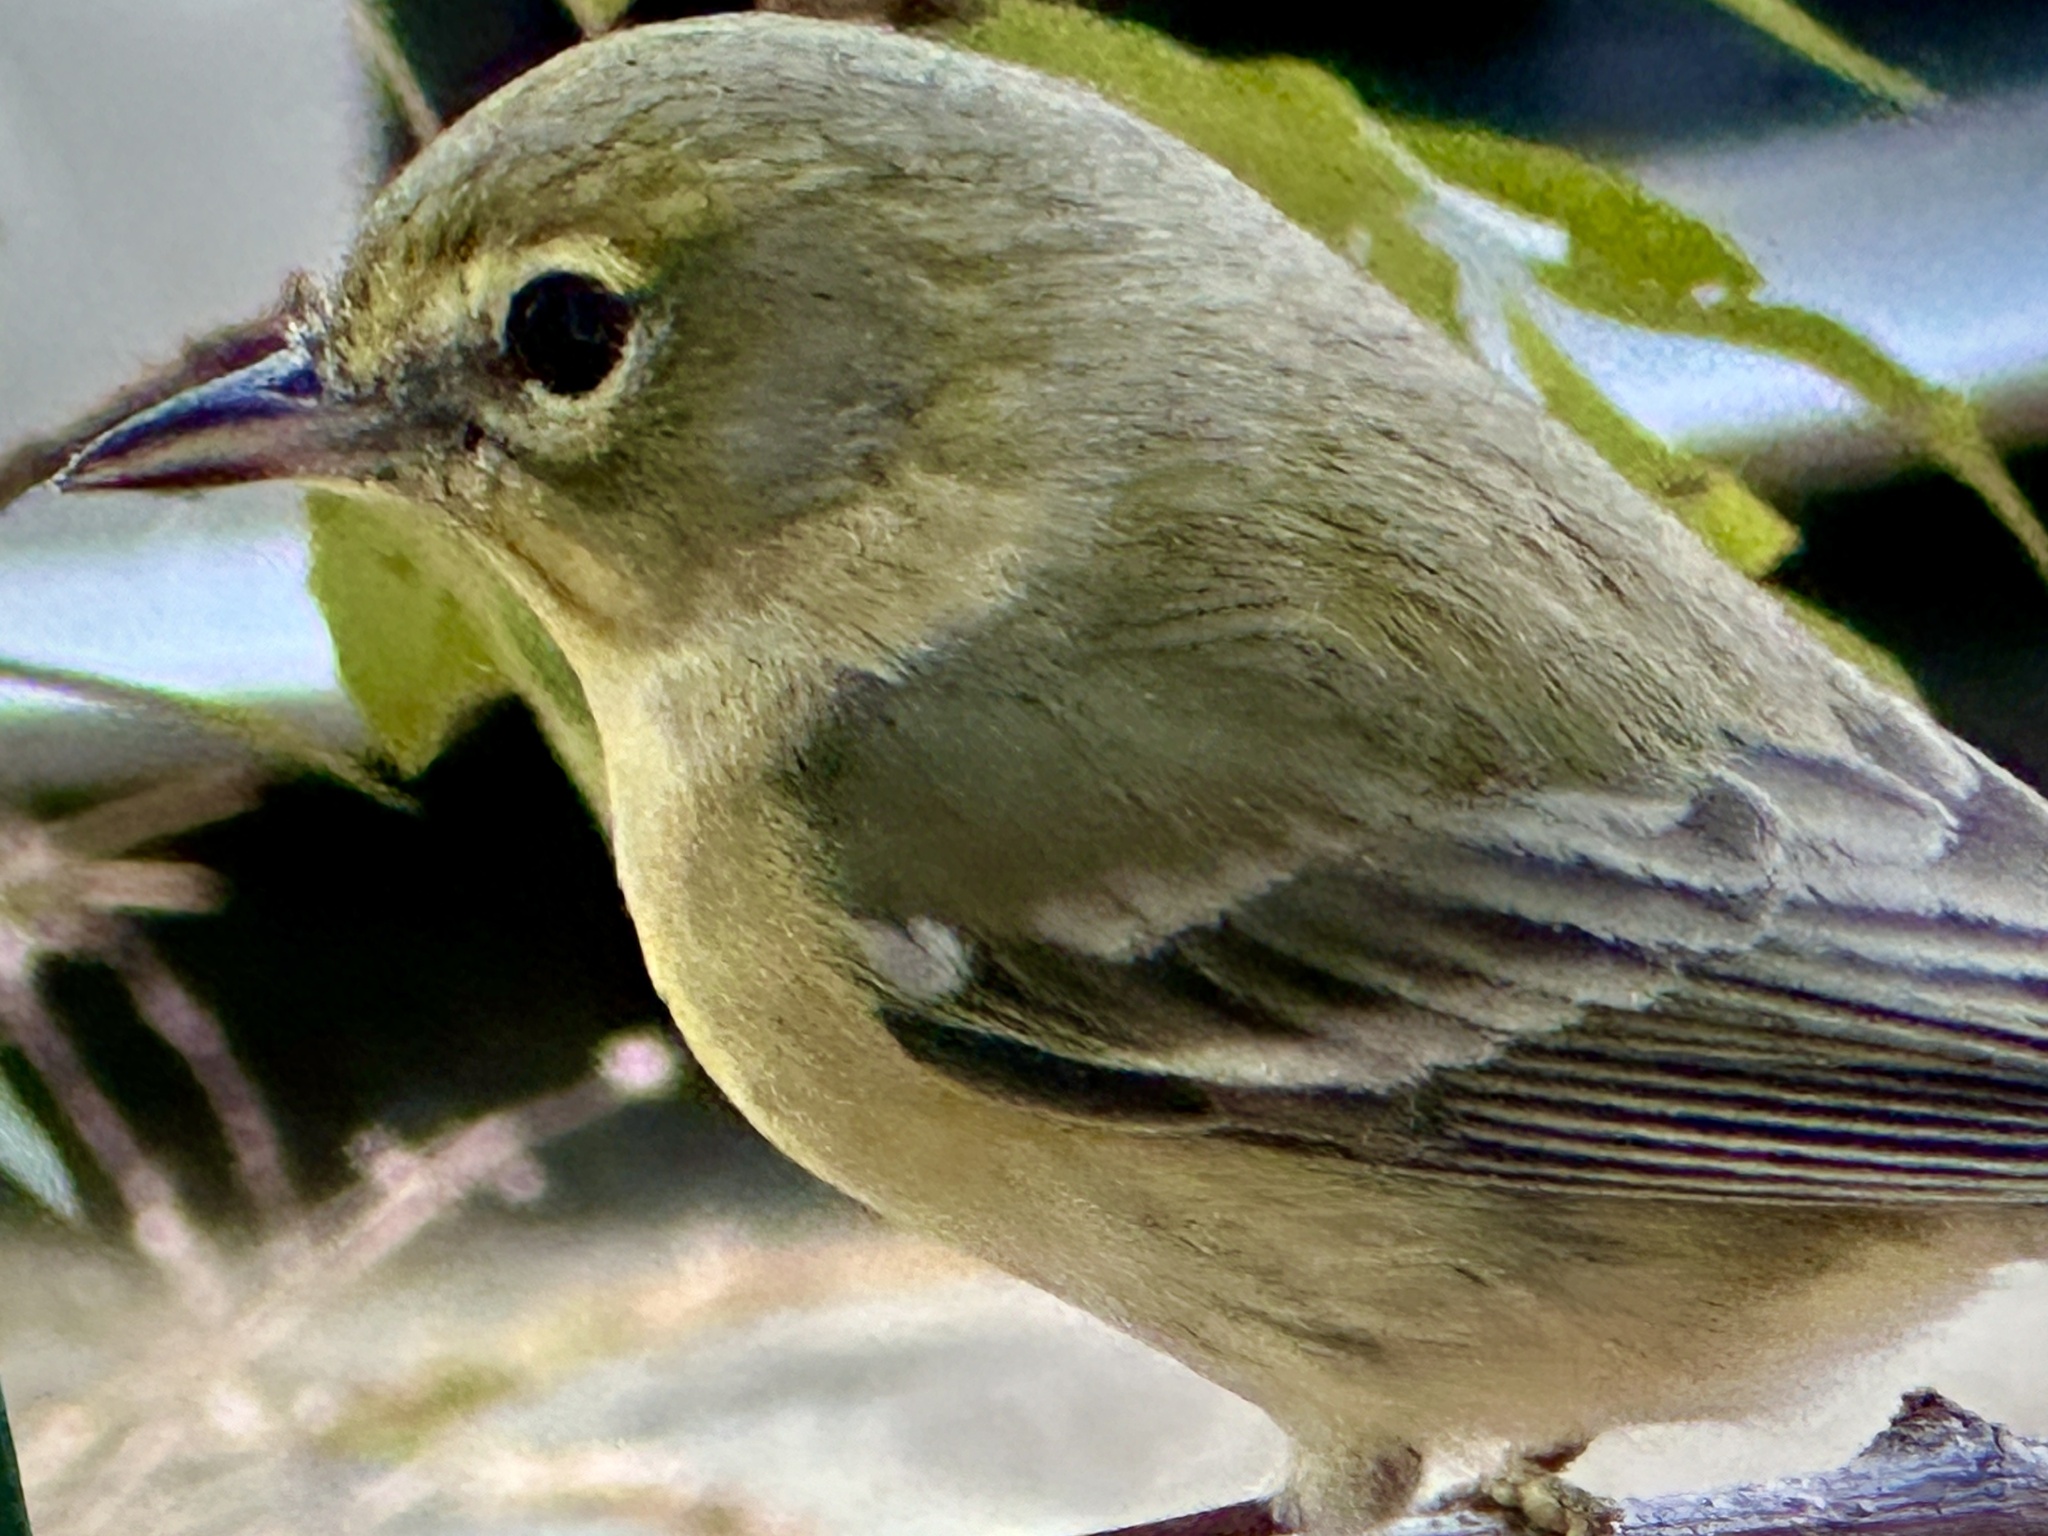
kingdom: Animalia
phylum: Chordata
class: Aves
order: Passeriformes
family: Parulidae
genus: Setophaga
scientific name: Setophaga pinus
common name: Pine warbler
